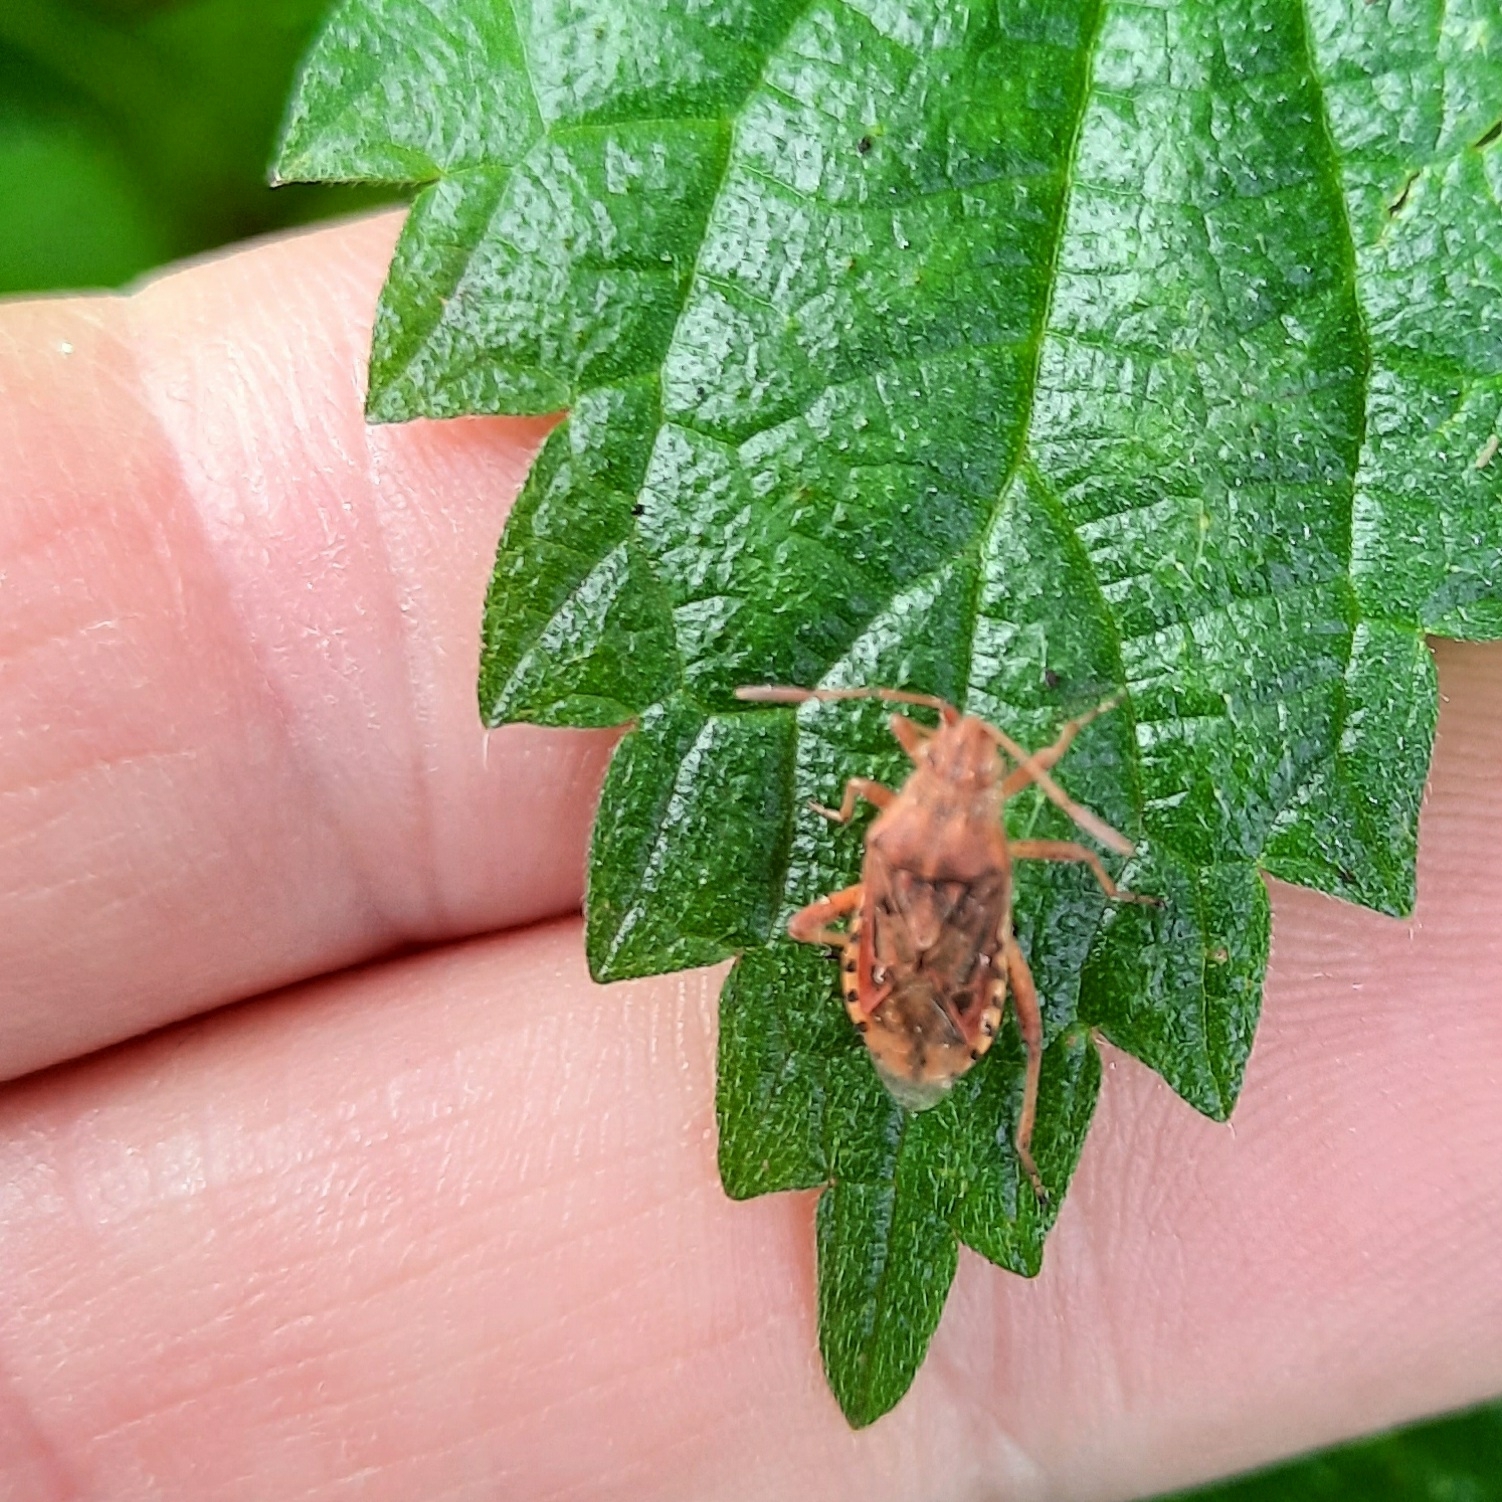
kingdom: Animalia
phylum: Arthropoda
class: Insecta
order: Hemiptera
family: Rhopalidae
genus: Stictopleurus
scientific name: Stictopleurus abutilon
